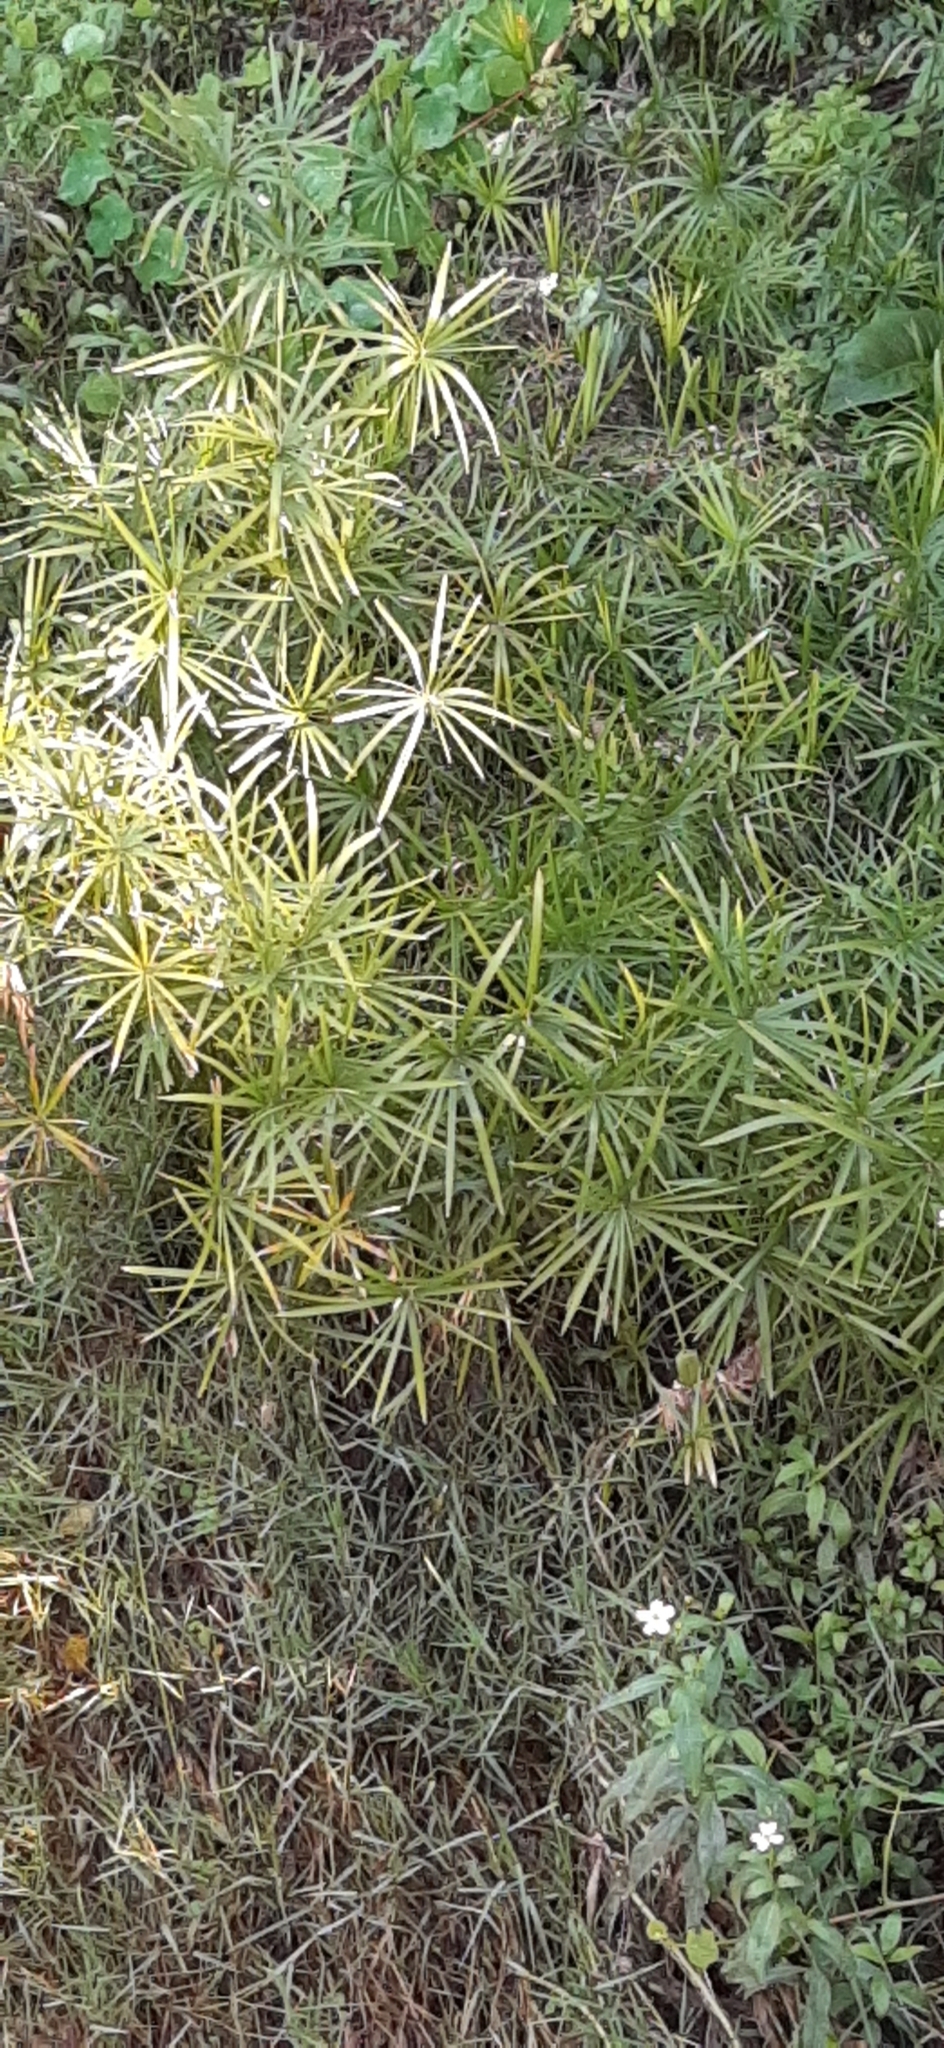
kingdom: Plantae
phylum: Tracheophyta
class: Liliopsida
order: Poales
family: Cyperaceae
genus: Cyperus
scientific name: Cyperus alternifolius
